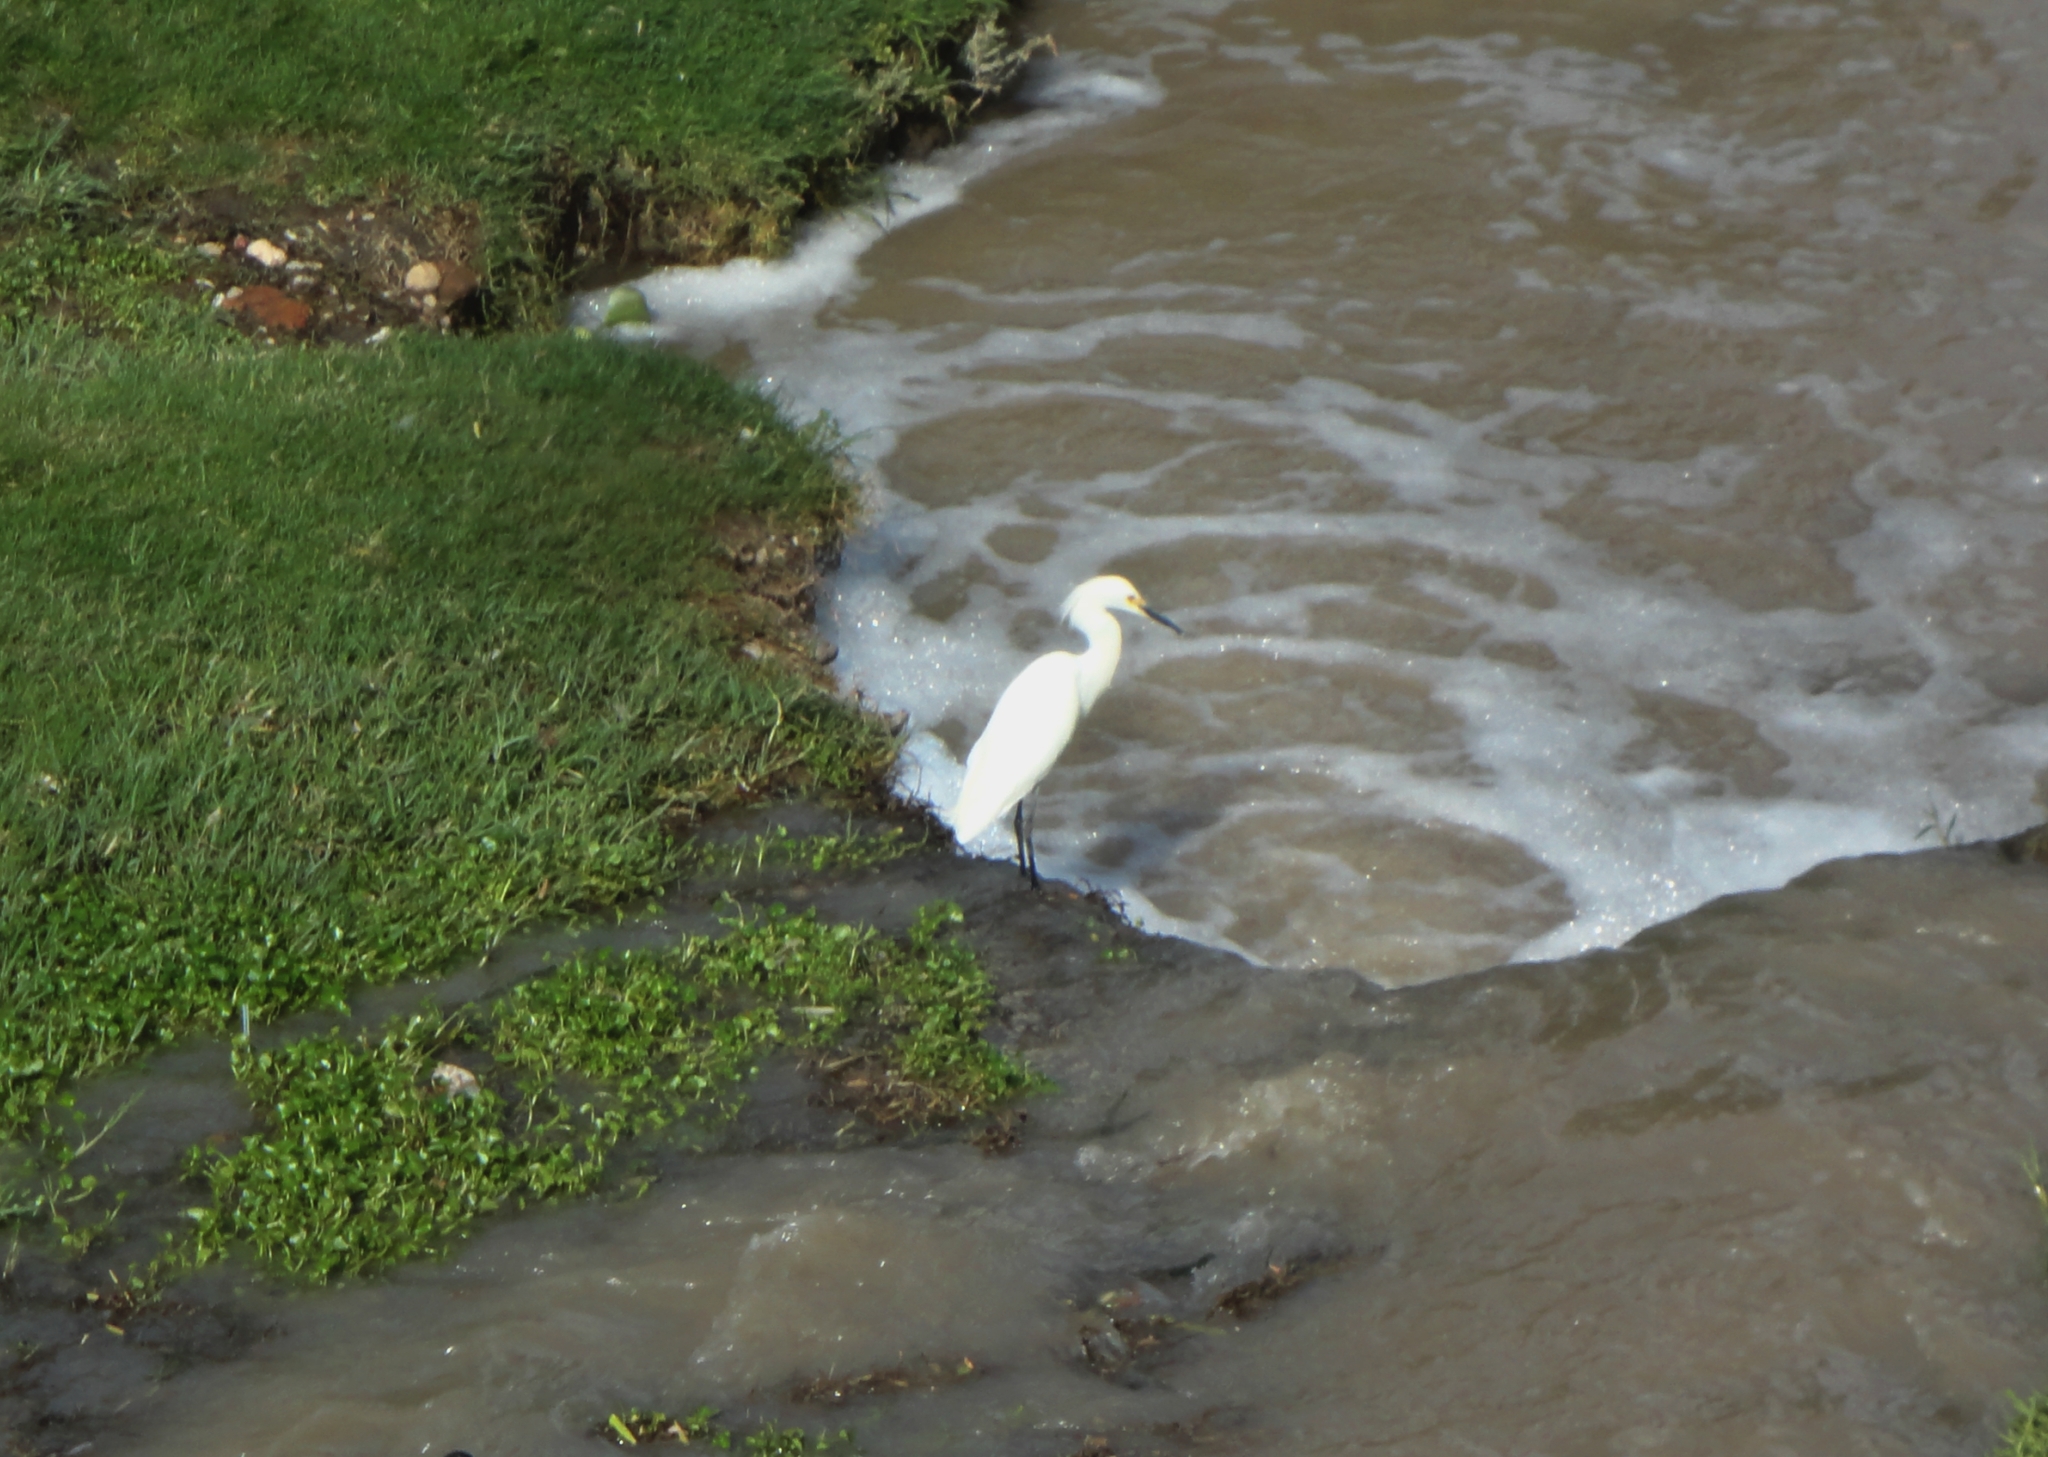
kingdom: Animalia
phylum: Chordata
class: Aves
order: Pelecaniformes
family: Ardeidae
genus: Egretta
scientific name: Egretta thula
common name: Snowy egret
